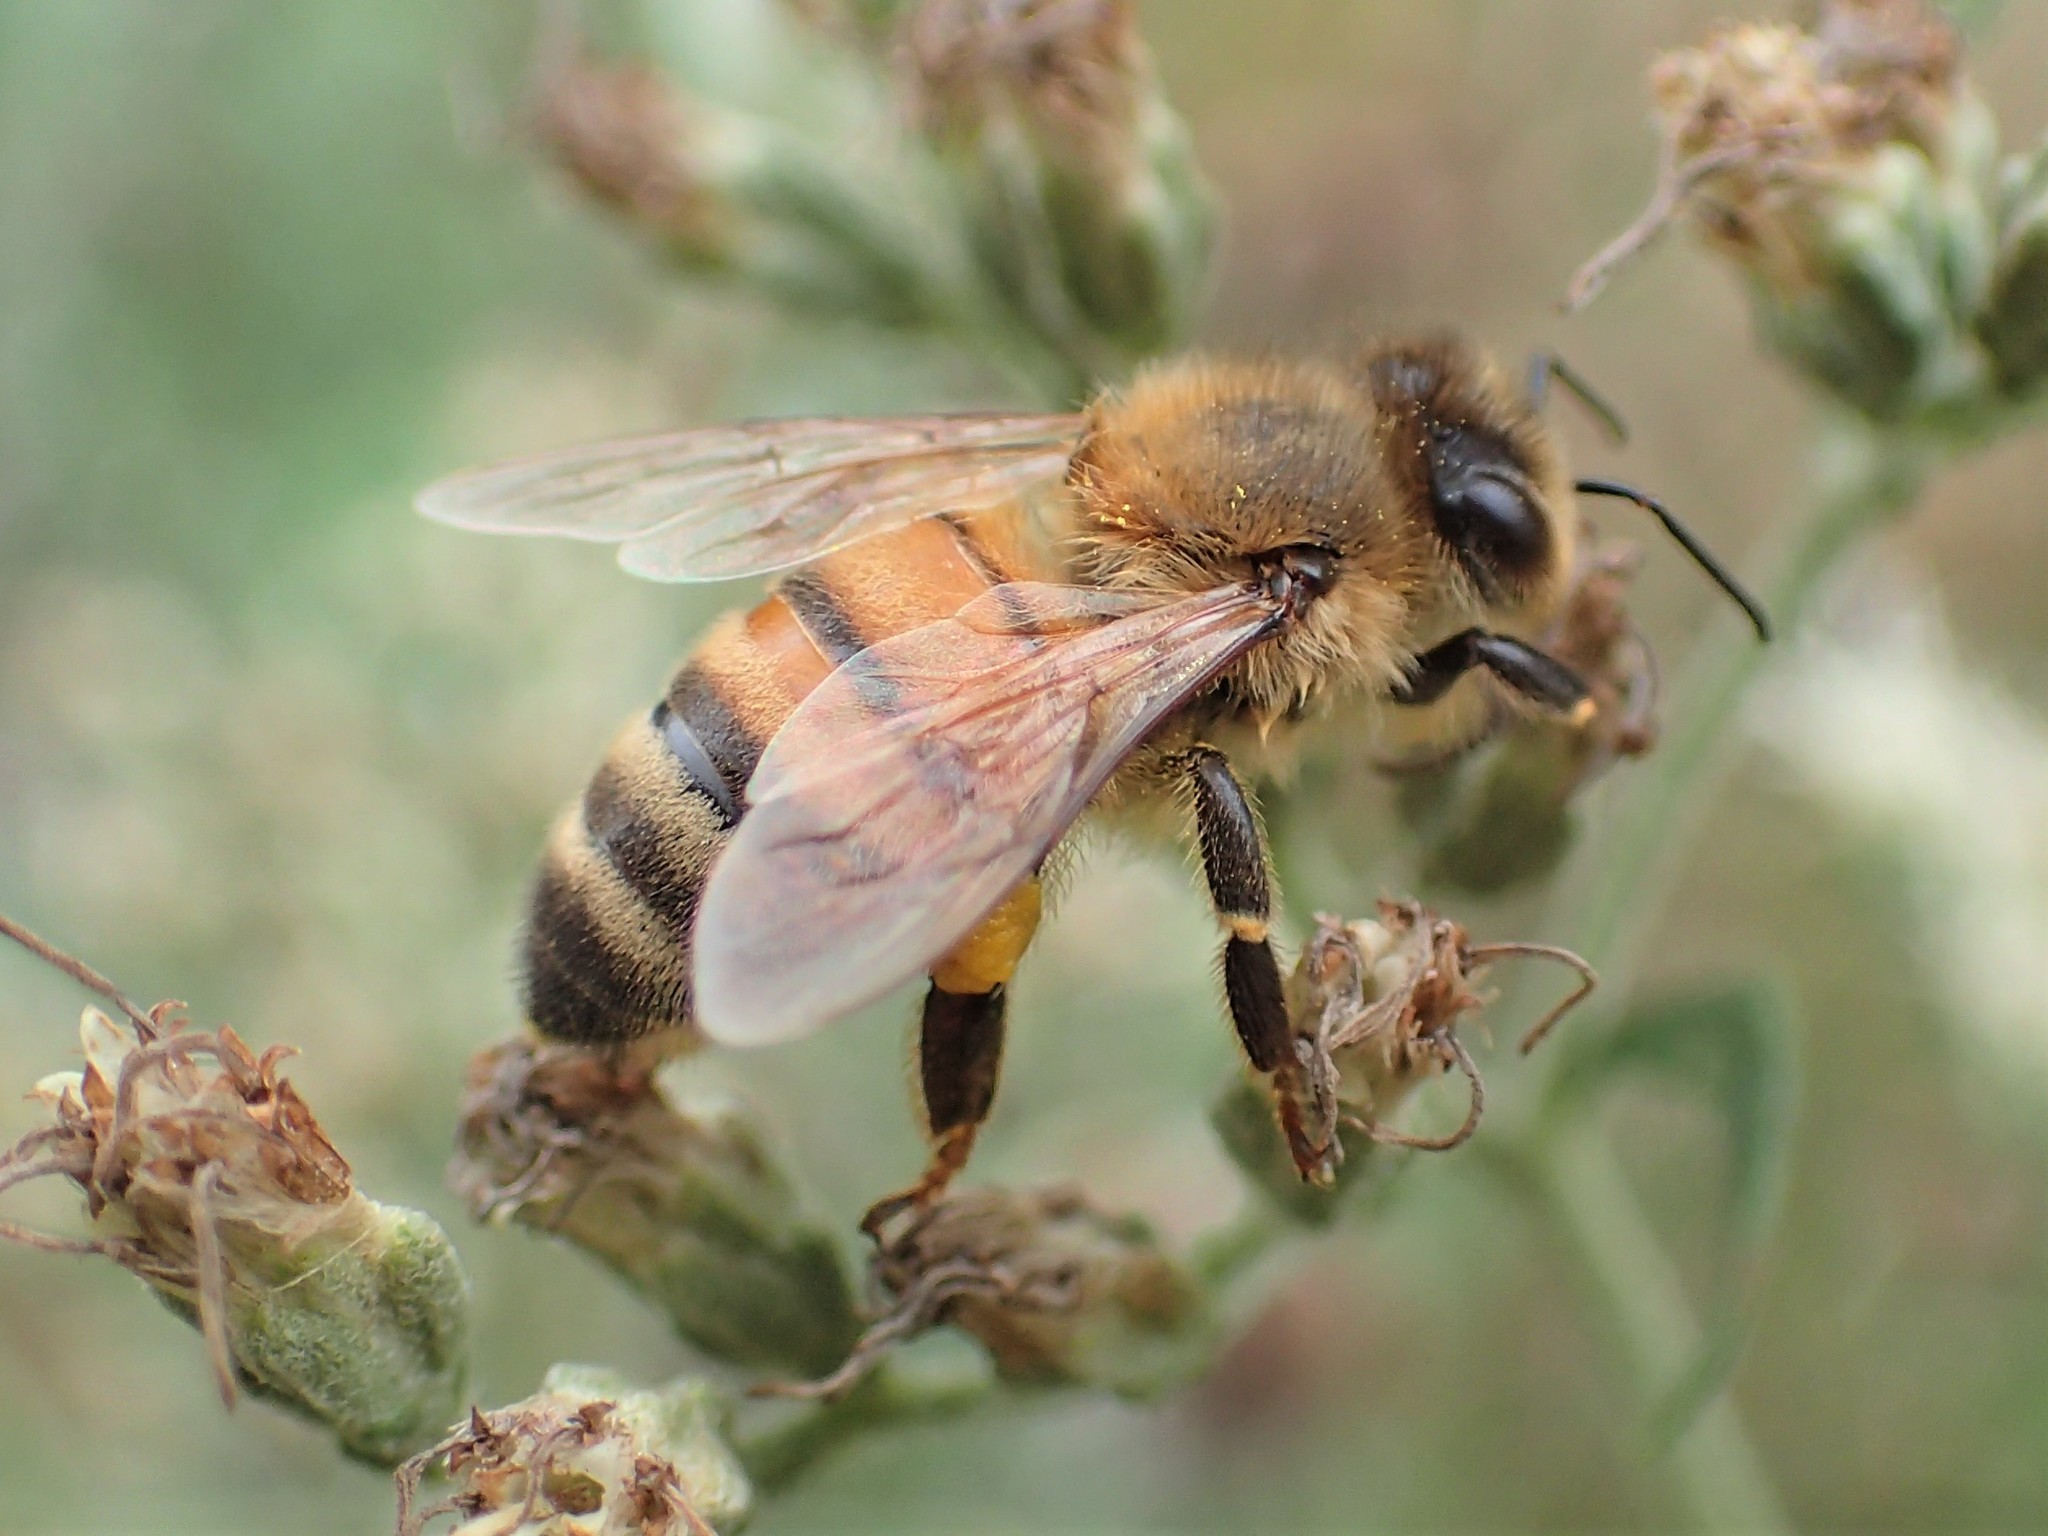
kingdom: Animalia
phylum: Arthropoda
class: Insecta
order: Hymenoptera
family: Apidae
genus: Apis
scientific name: Apis mellifera
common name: Honey bee
